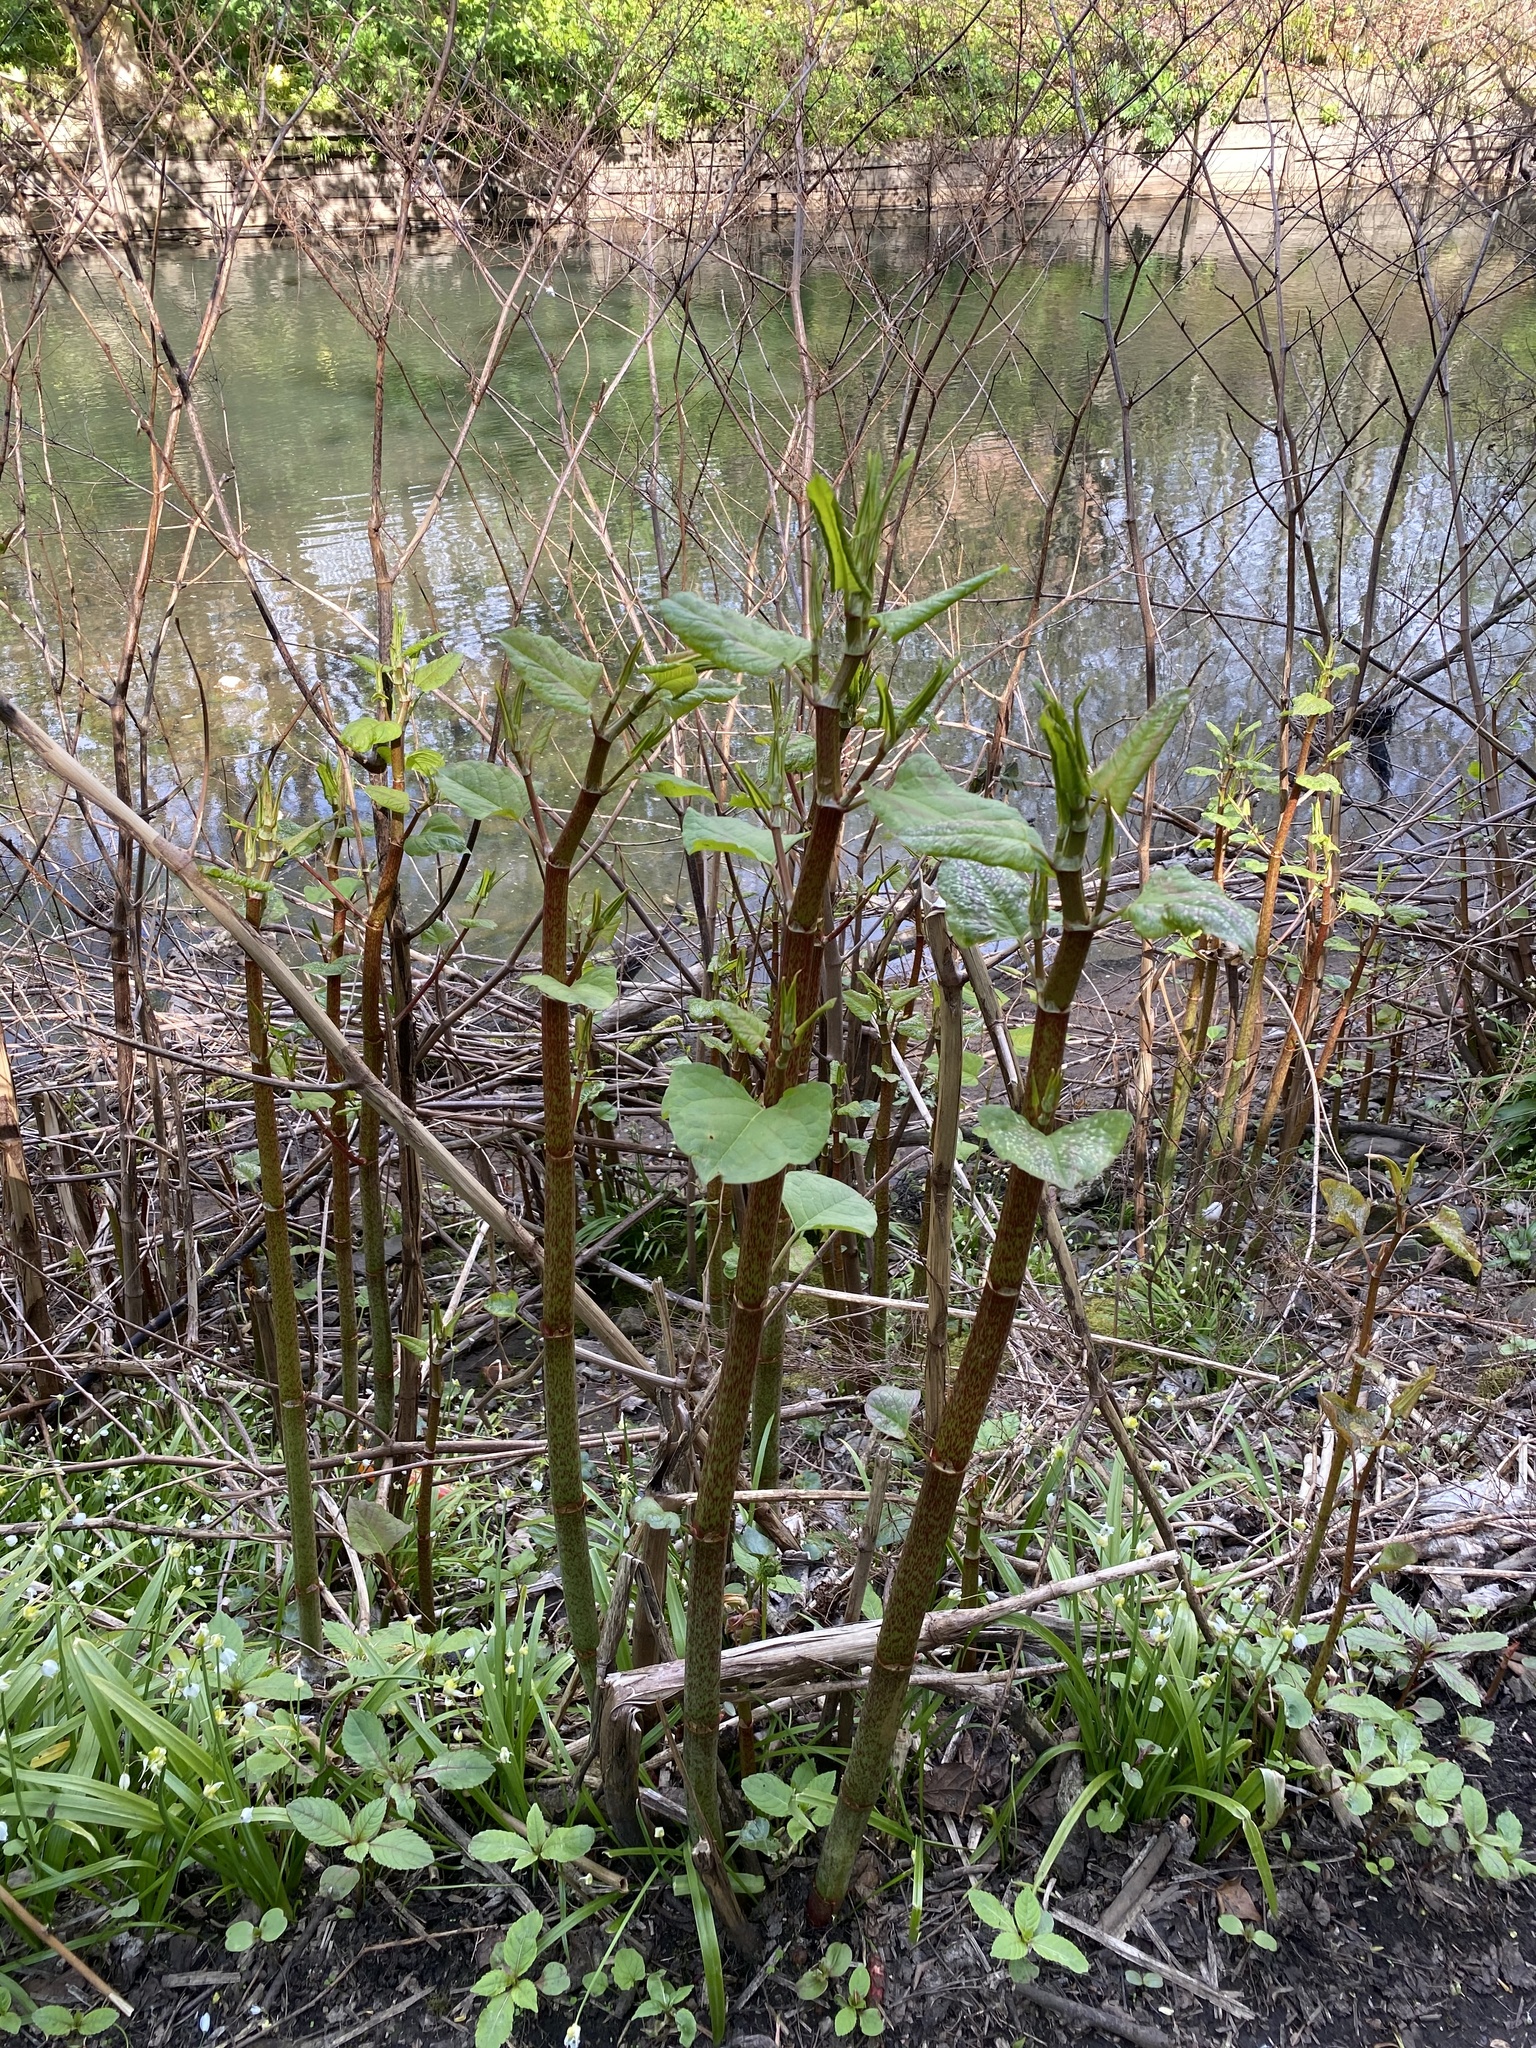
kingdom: Plantae
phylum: Tracheophyta
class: Magnoliopsida
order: Caryophyllales
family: Polygonaceae
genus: Reynoutria
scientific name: Reynoutria japonica
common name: Japanese knotweed
